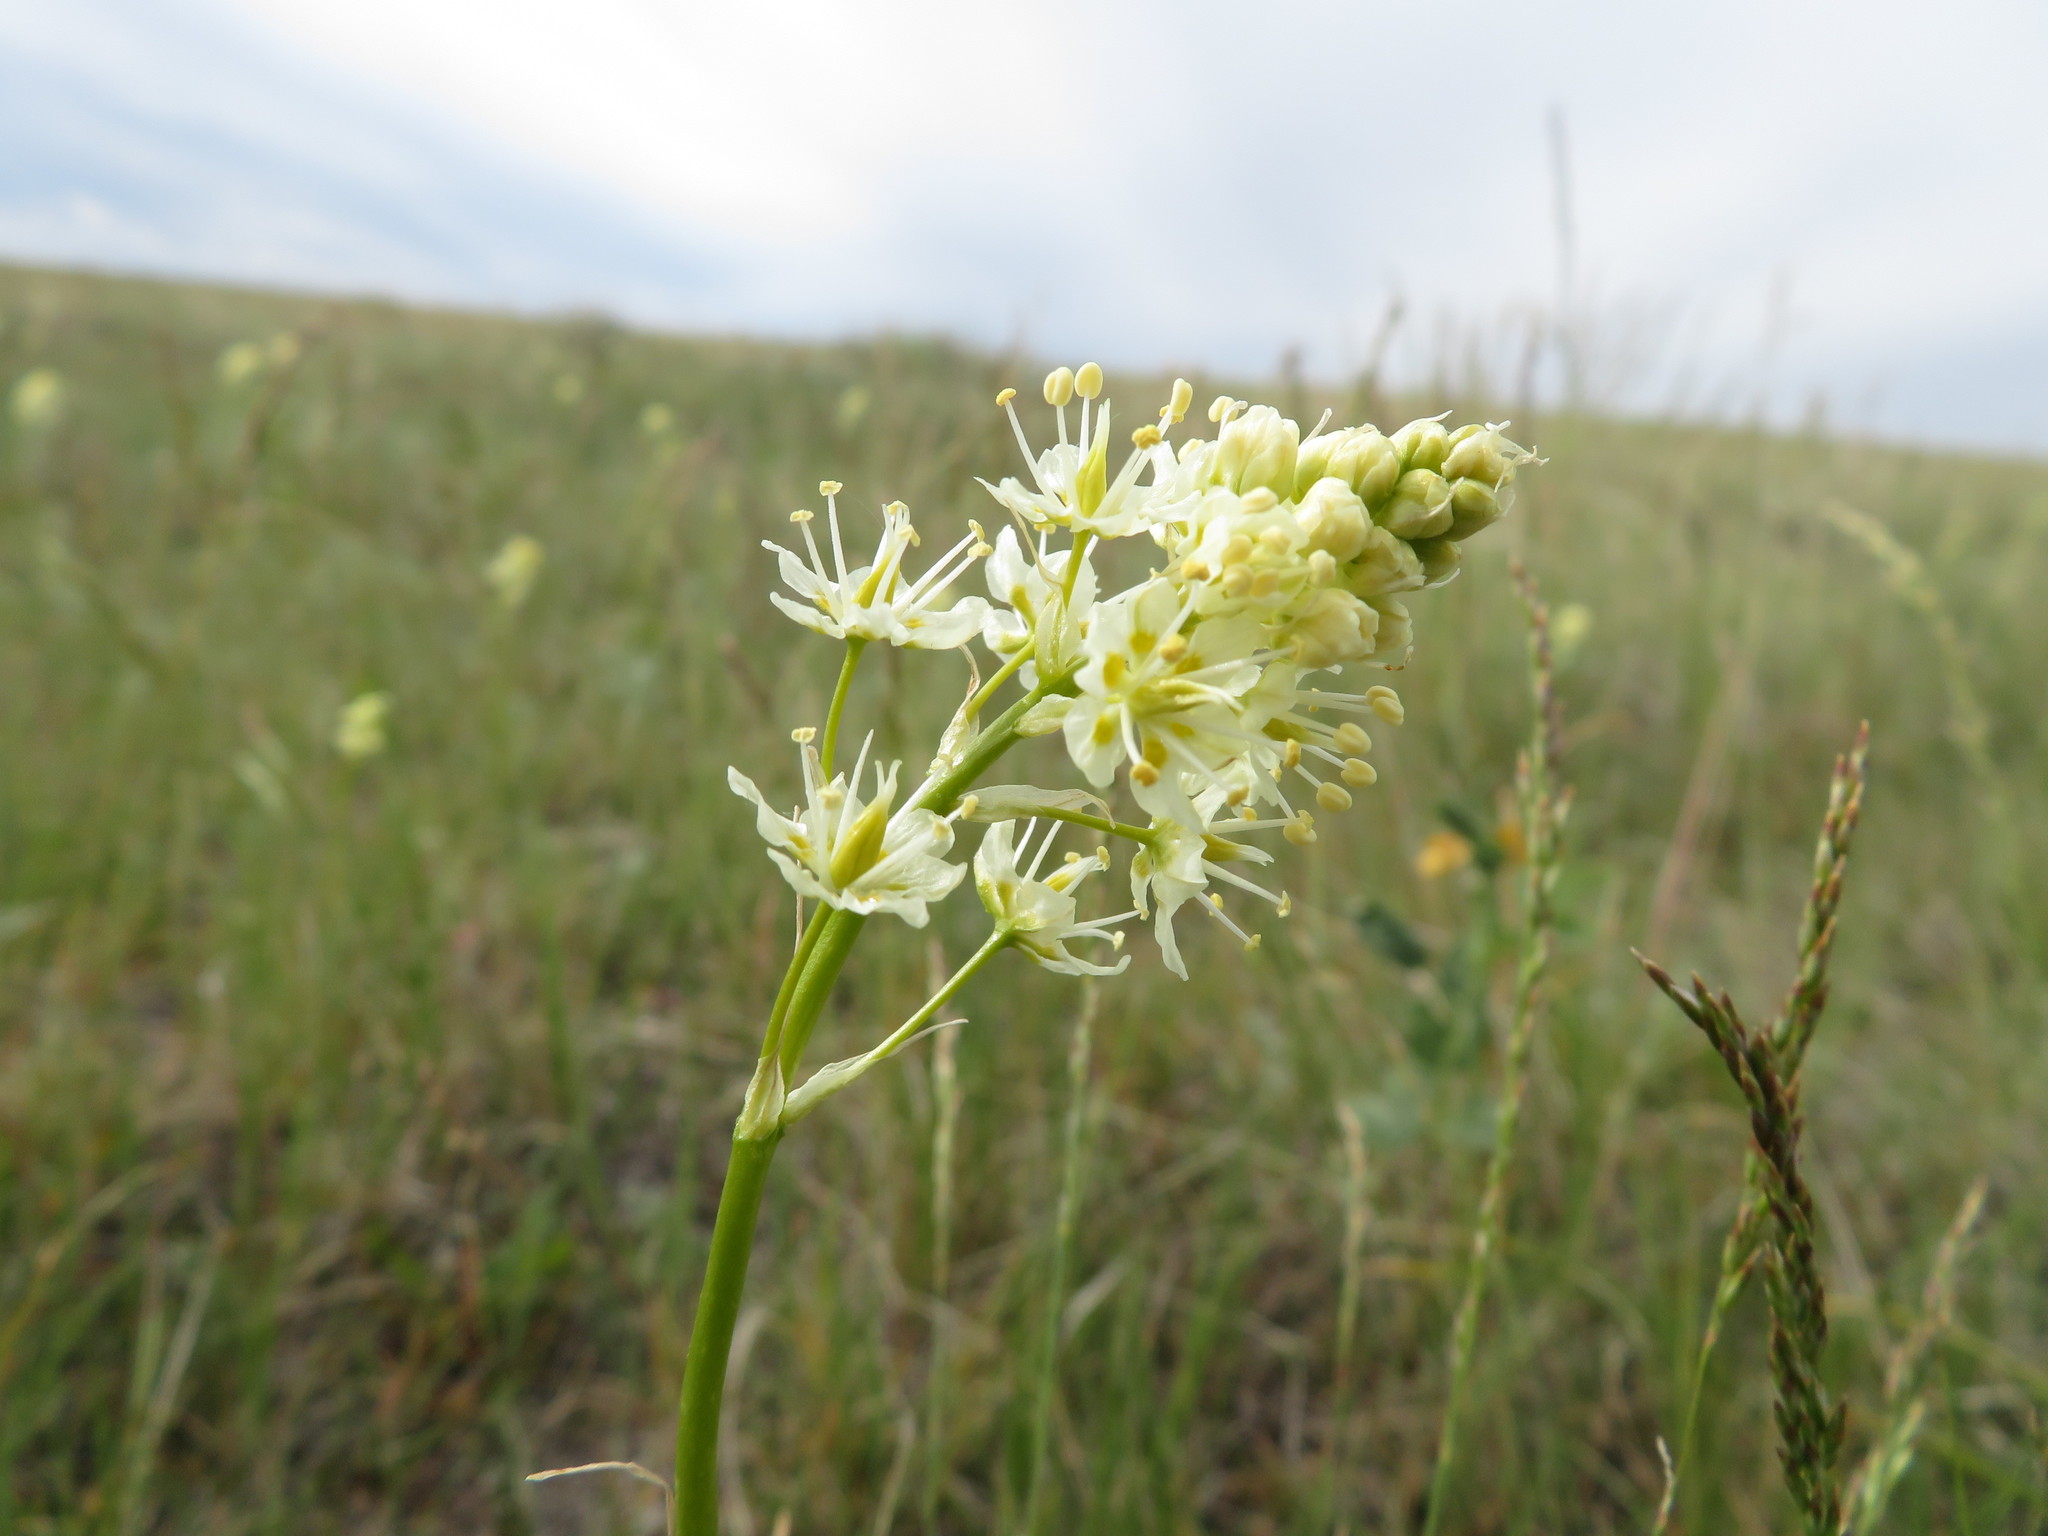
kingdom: Plantae
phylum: Tracheophyta
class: Liliopsida
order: Liliales
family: Melanthiaceae
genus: Toxicoscordion
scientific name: Toxicoscordion venenosum
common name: Meadow death camas
